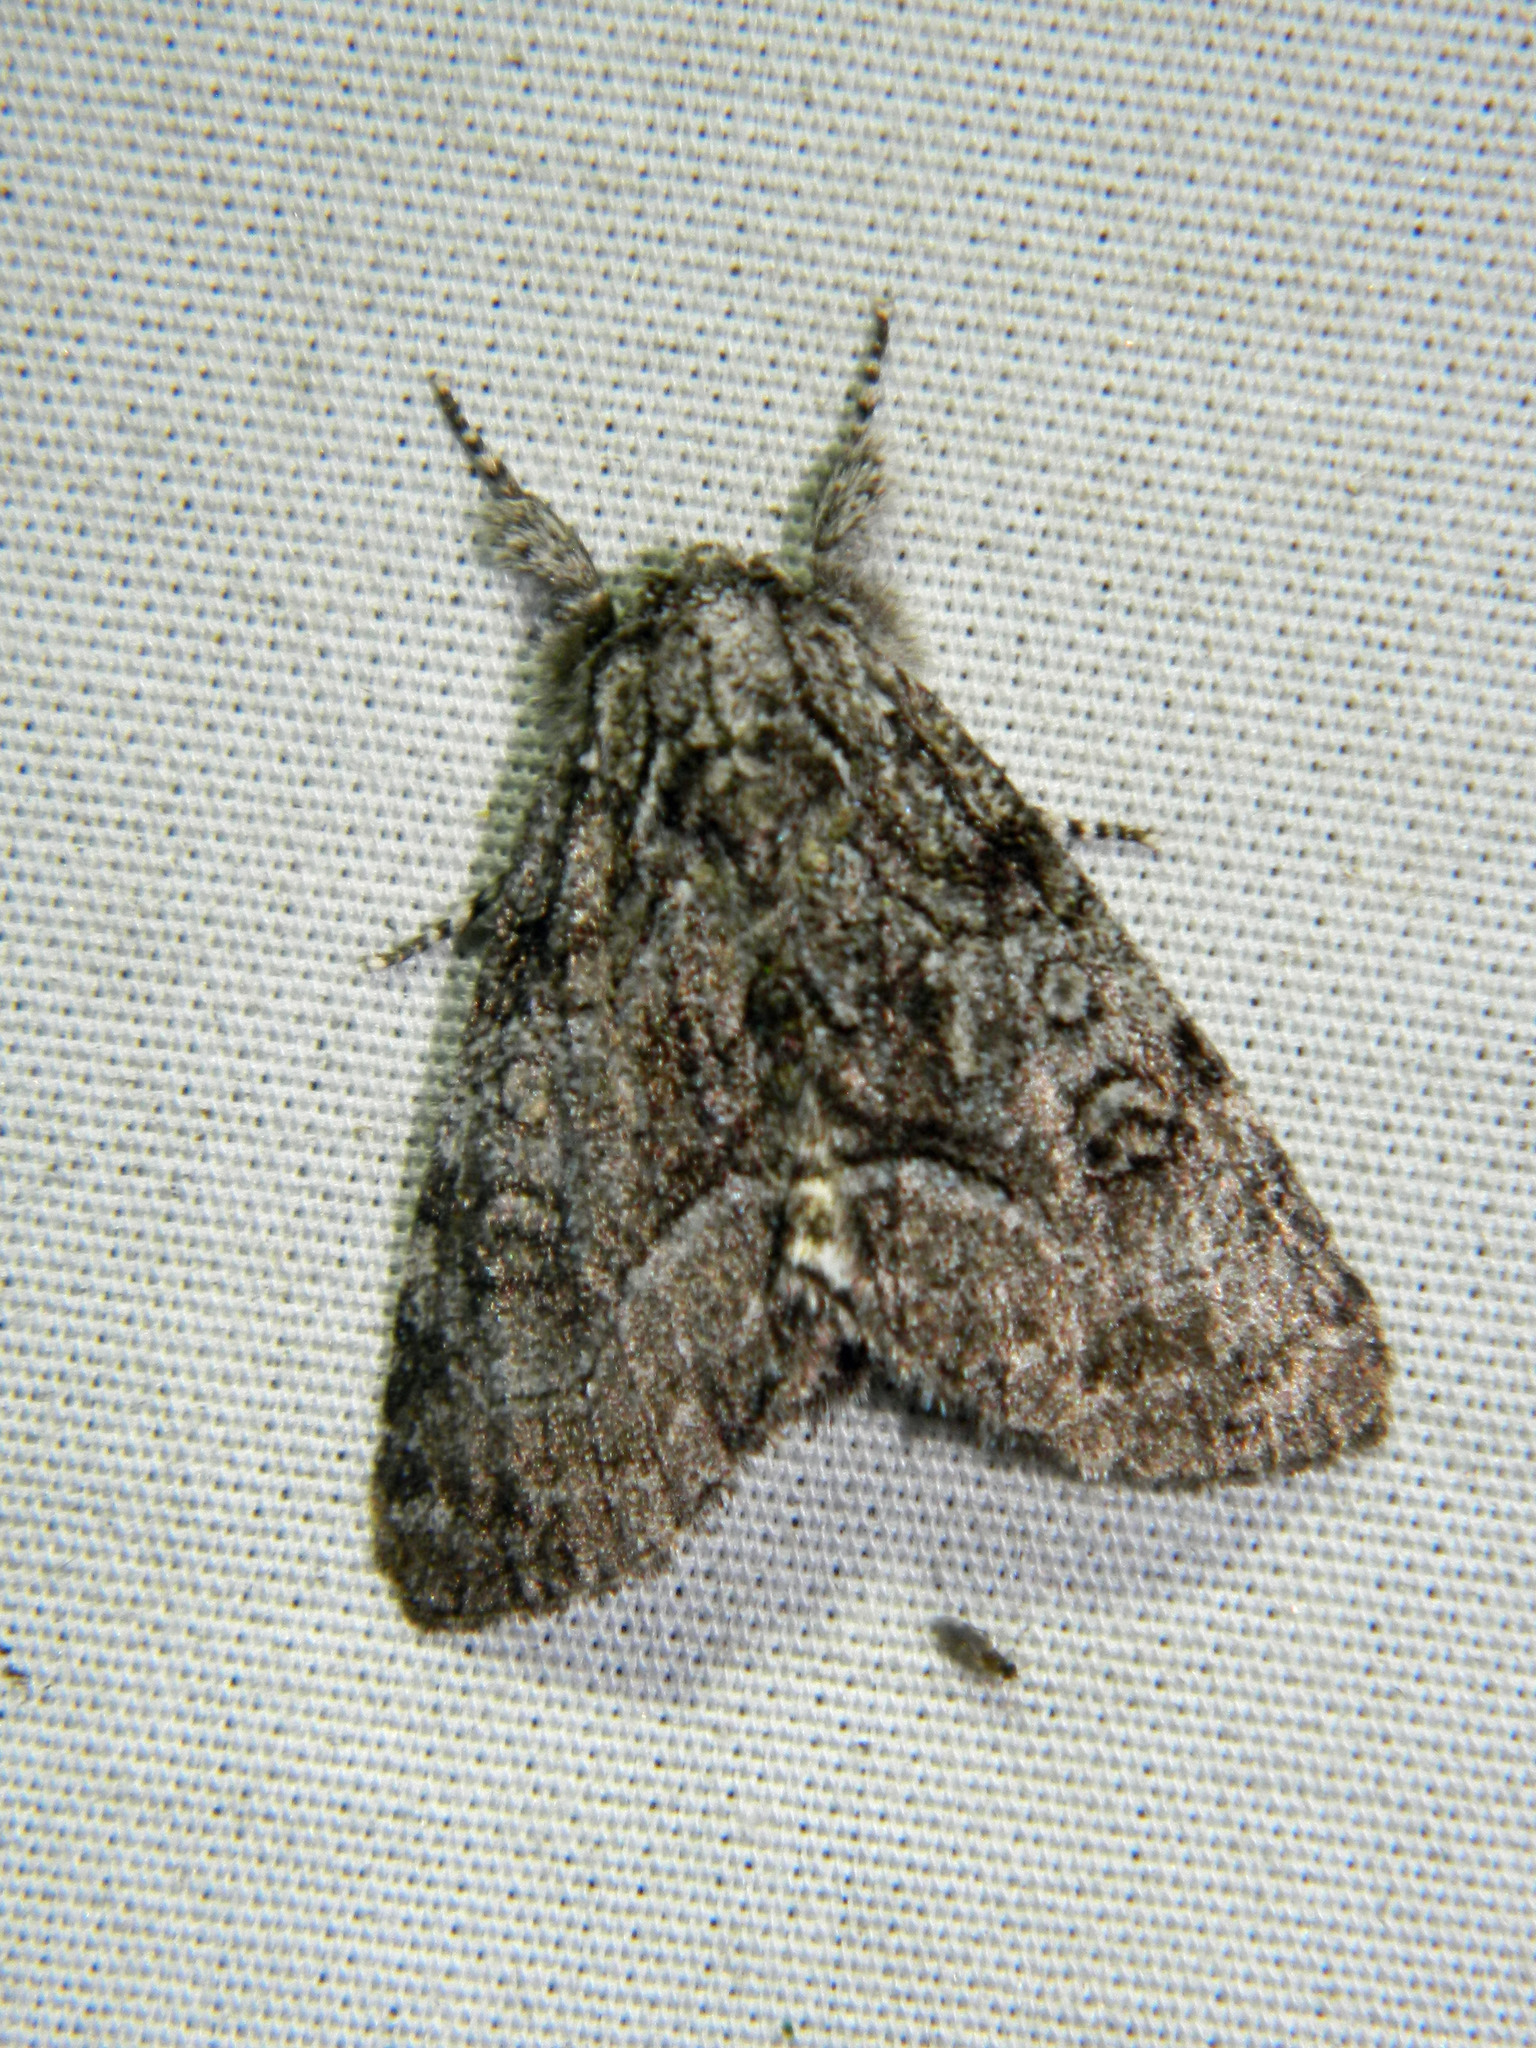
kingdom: Animalia
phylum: Arthropoda
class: Insecta
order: Lepidoptera
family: Noctuidae
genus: Raphia
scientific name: Raphia frater
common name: Brother
